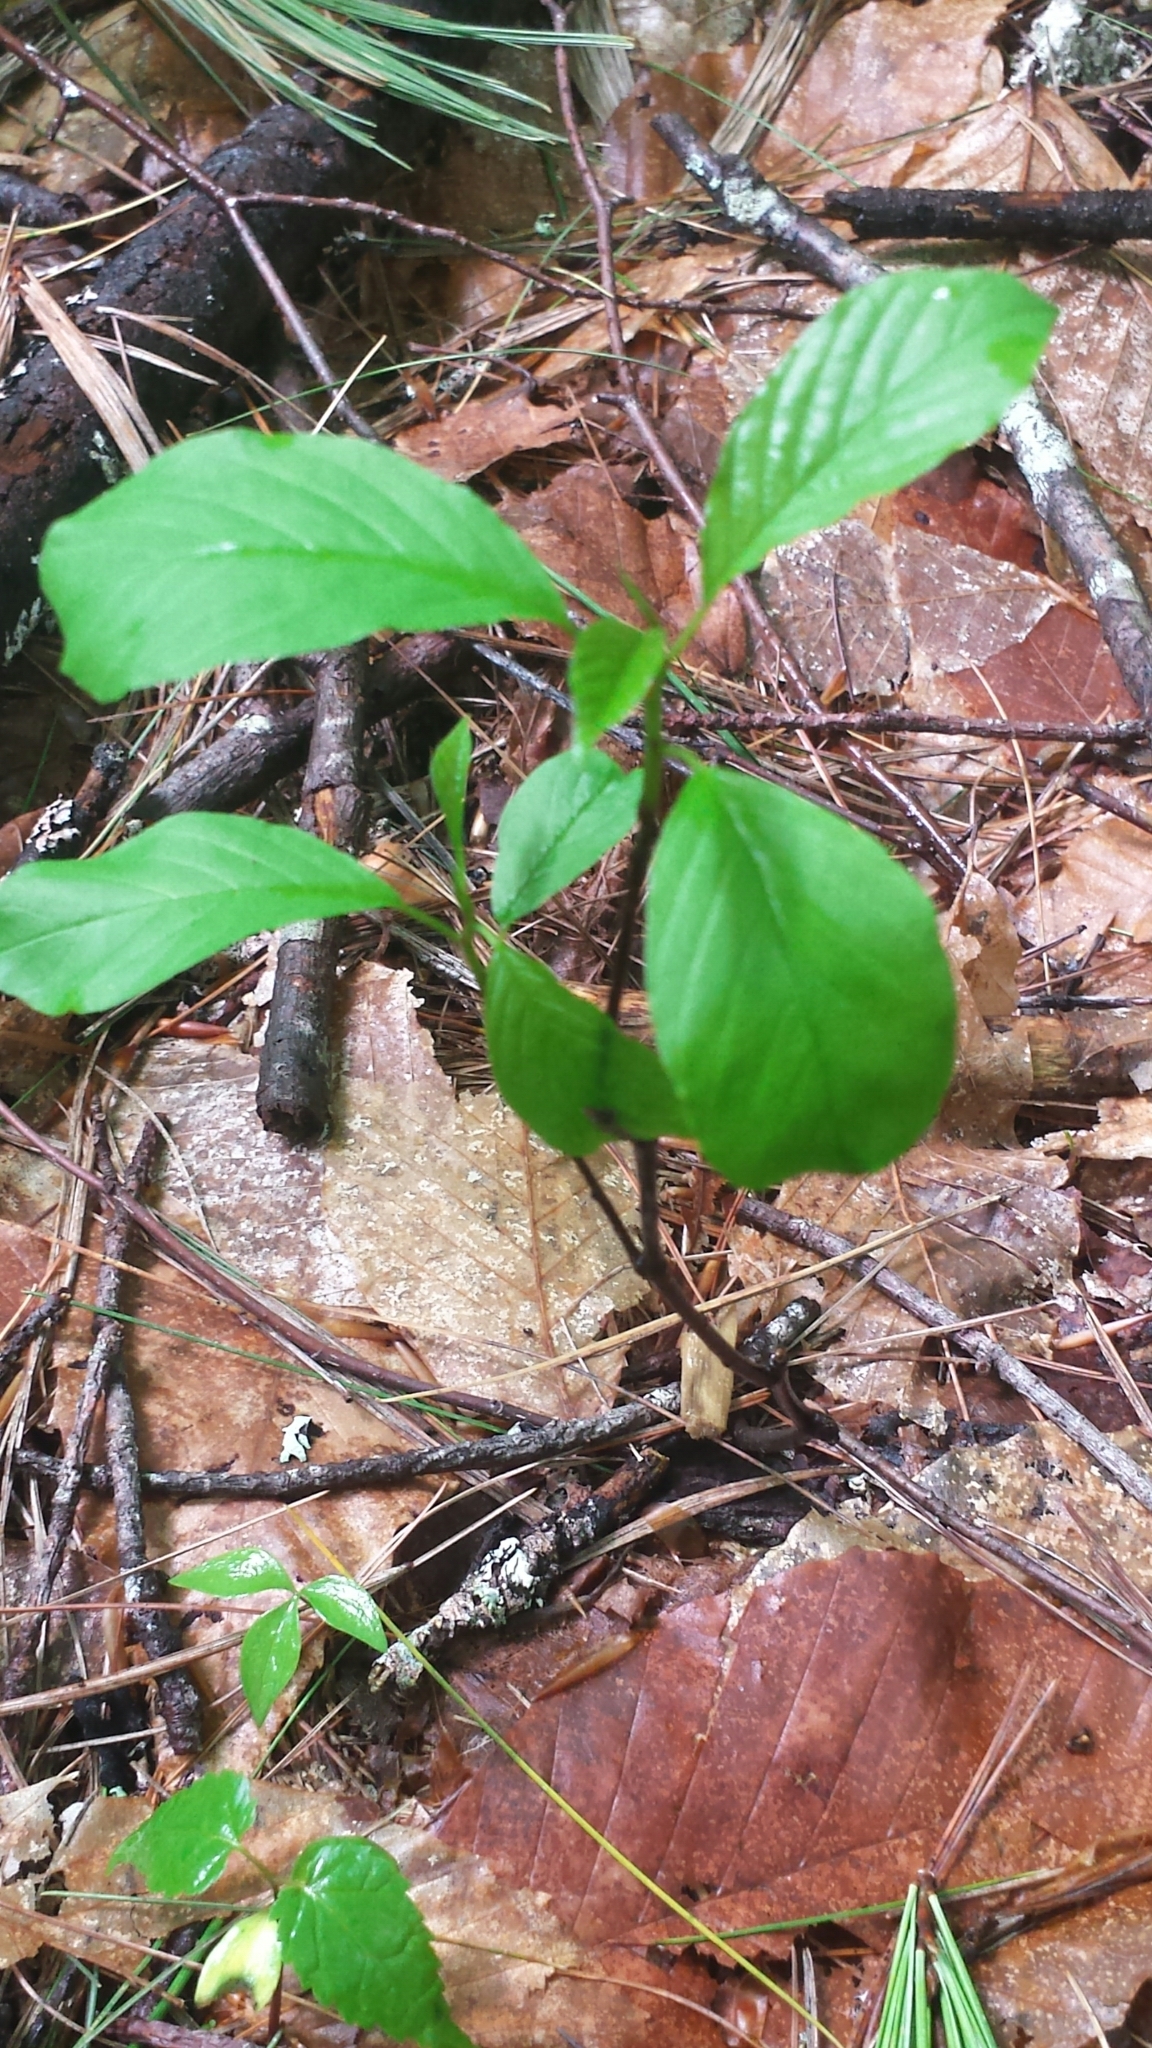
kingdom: Plantae
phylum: Tracheophyta
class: Magnoliopsida
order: Rosales
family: Rhamnaceae
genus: Frangula
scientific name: Frangula alnus
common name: Alder buckthorn
